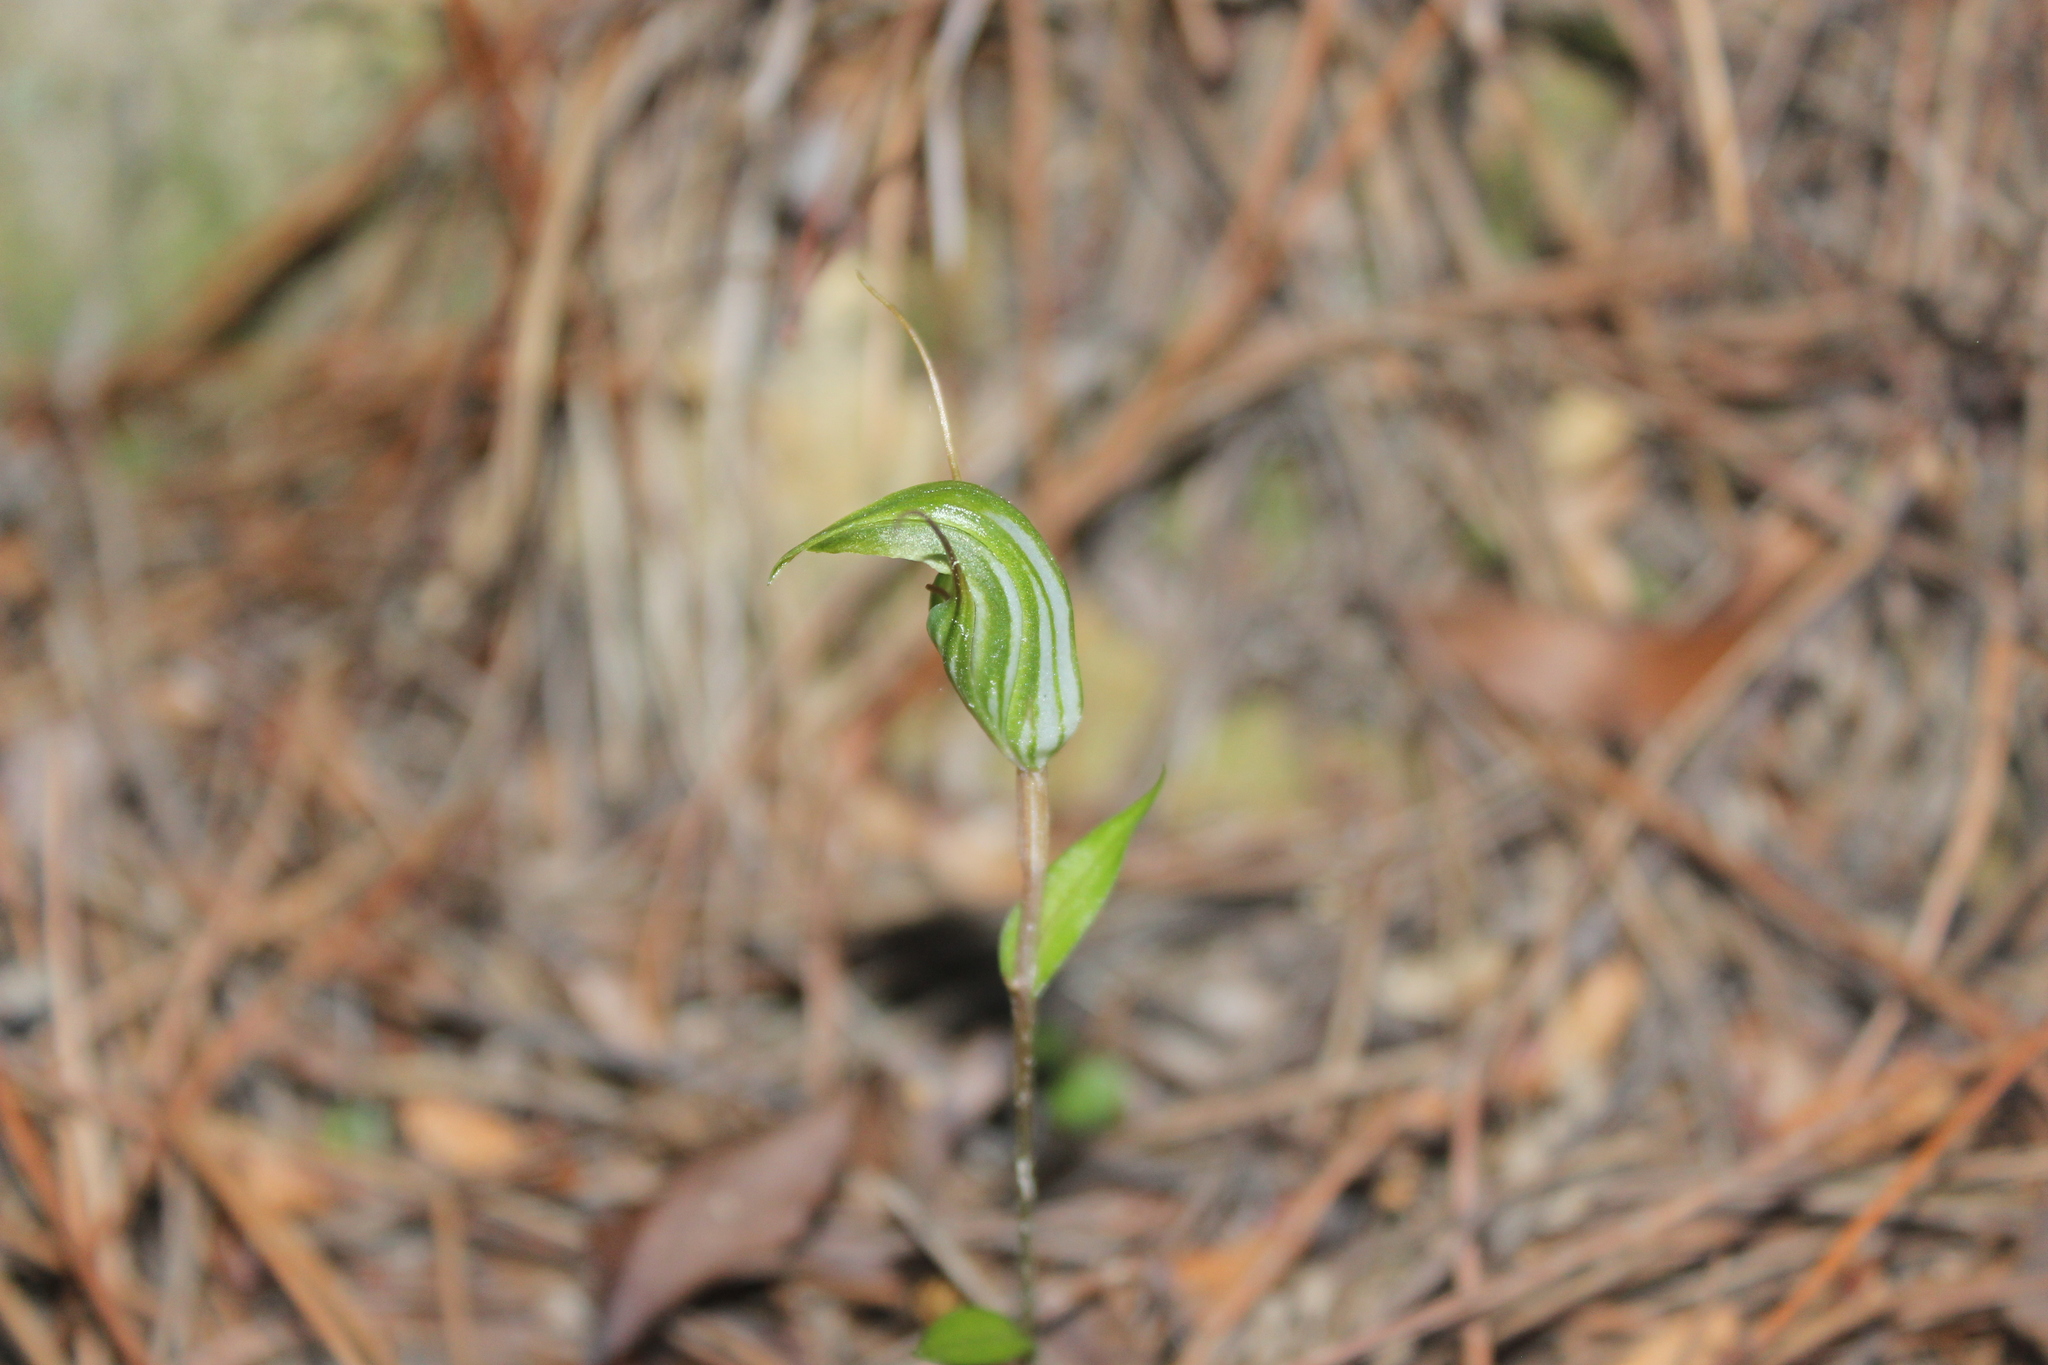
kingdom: Plantae
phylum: Tracheophyta
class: Liliopsida
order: Asparagales
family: Orchidaceae
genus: Pterostylis
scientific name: Pterostylis alobula
